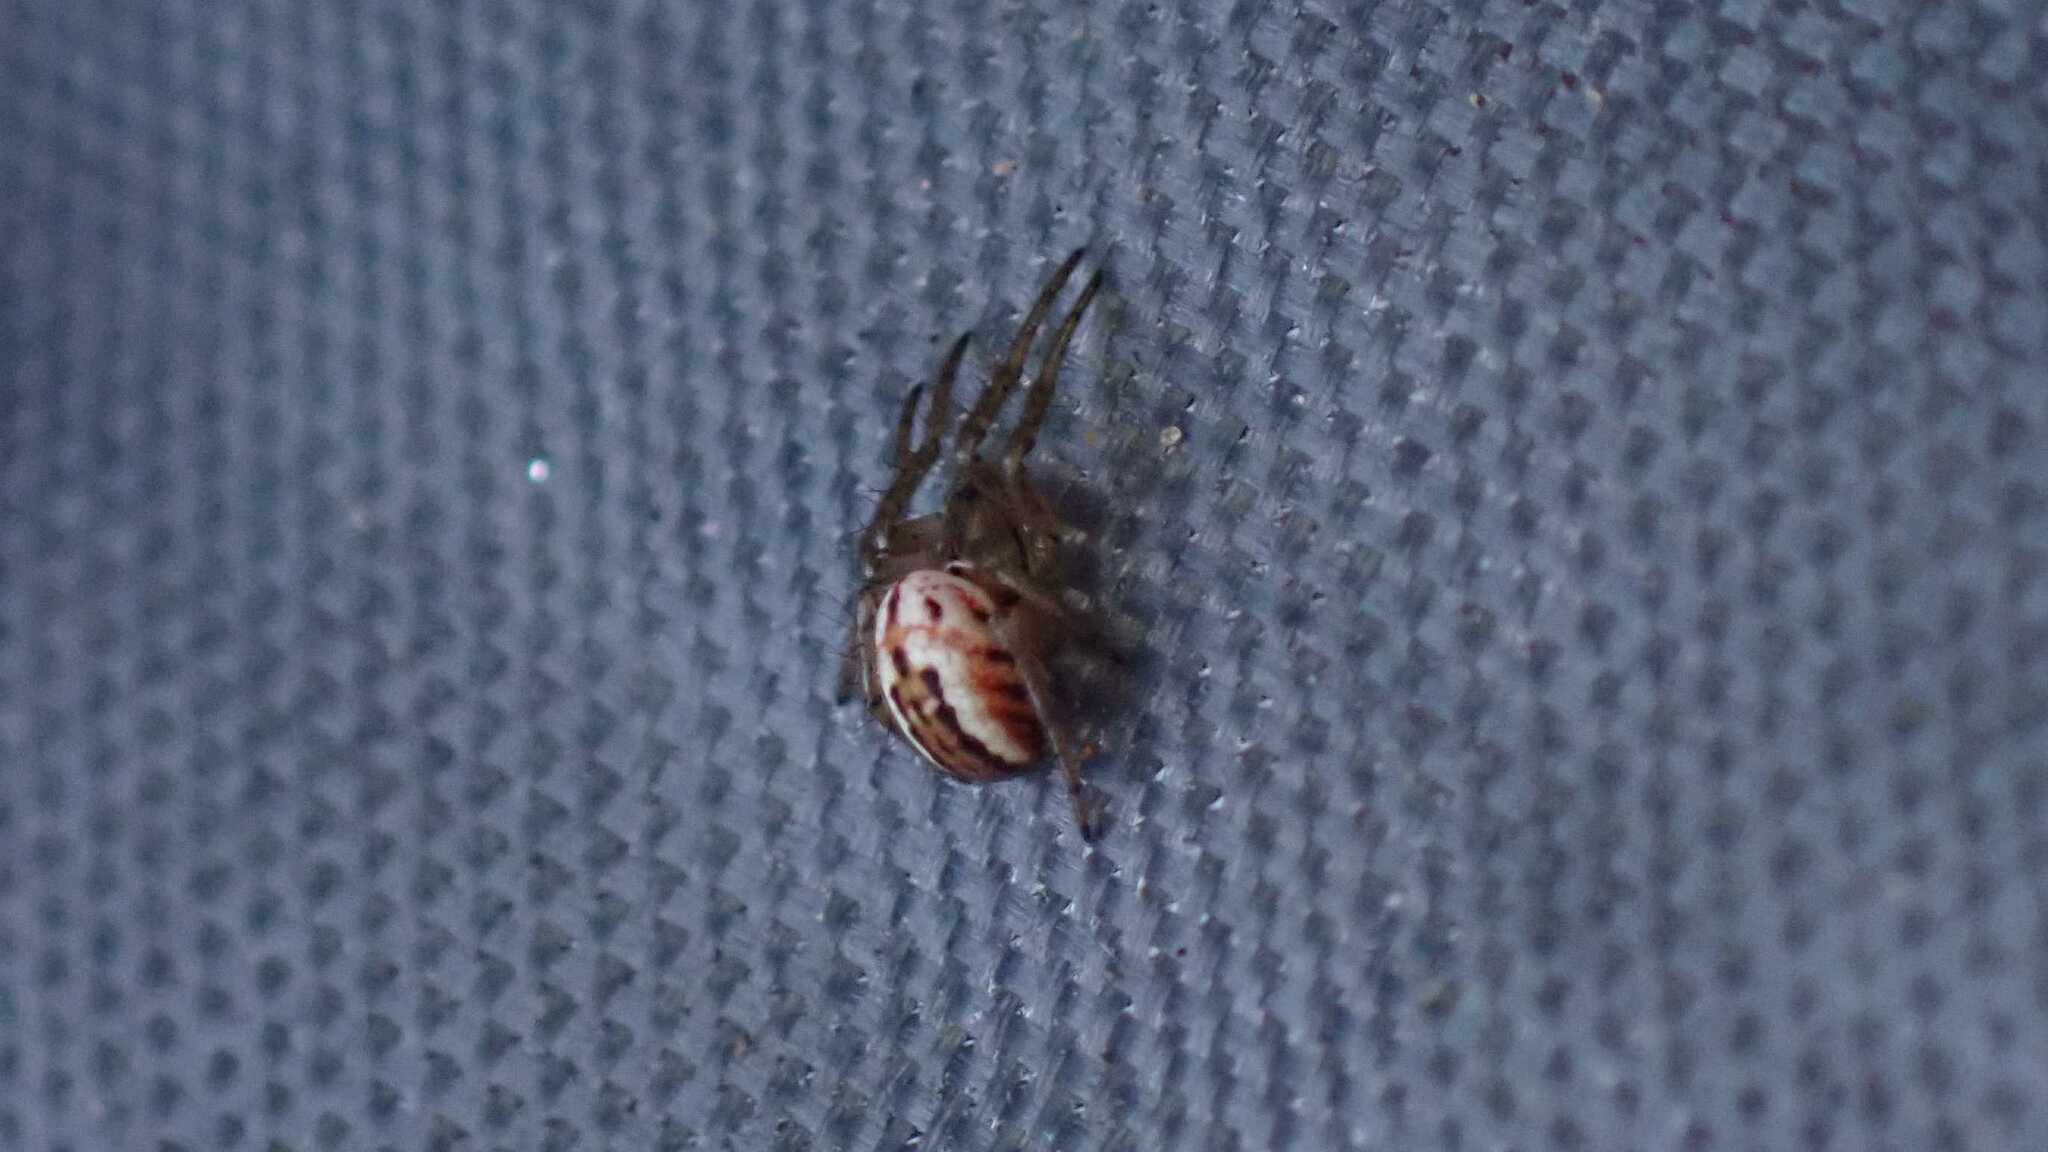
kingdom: Animalia
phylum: Arthropoda
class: Arachnida
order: Araneae
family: Araneidae
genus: Mangora
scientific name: Mangora acalypha
